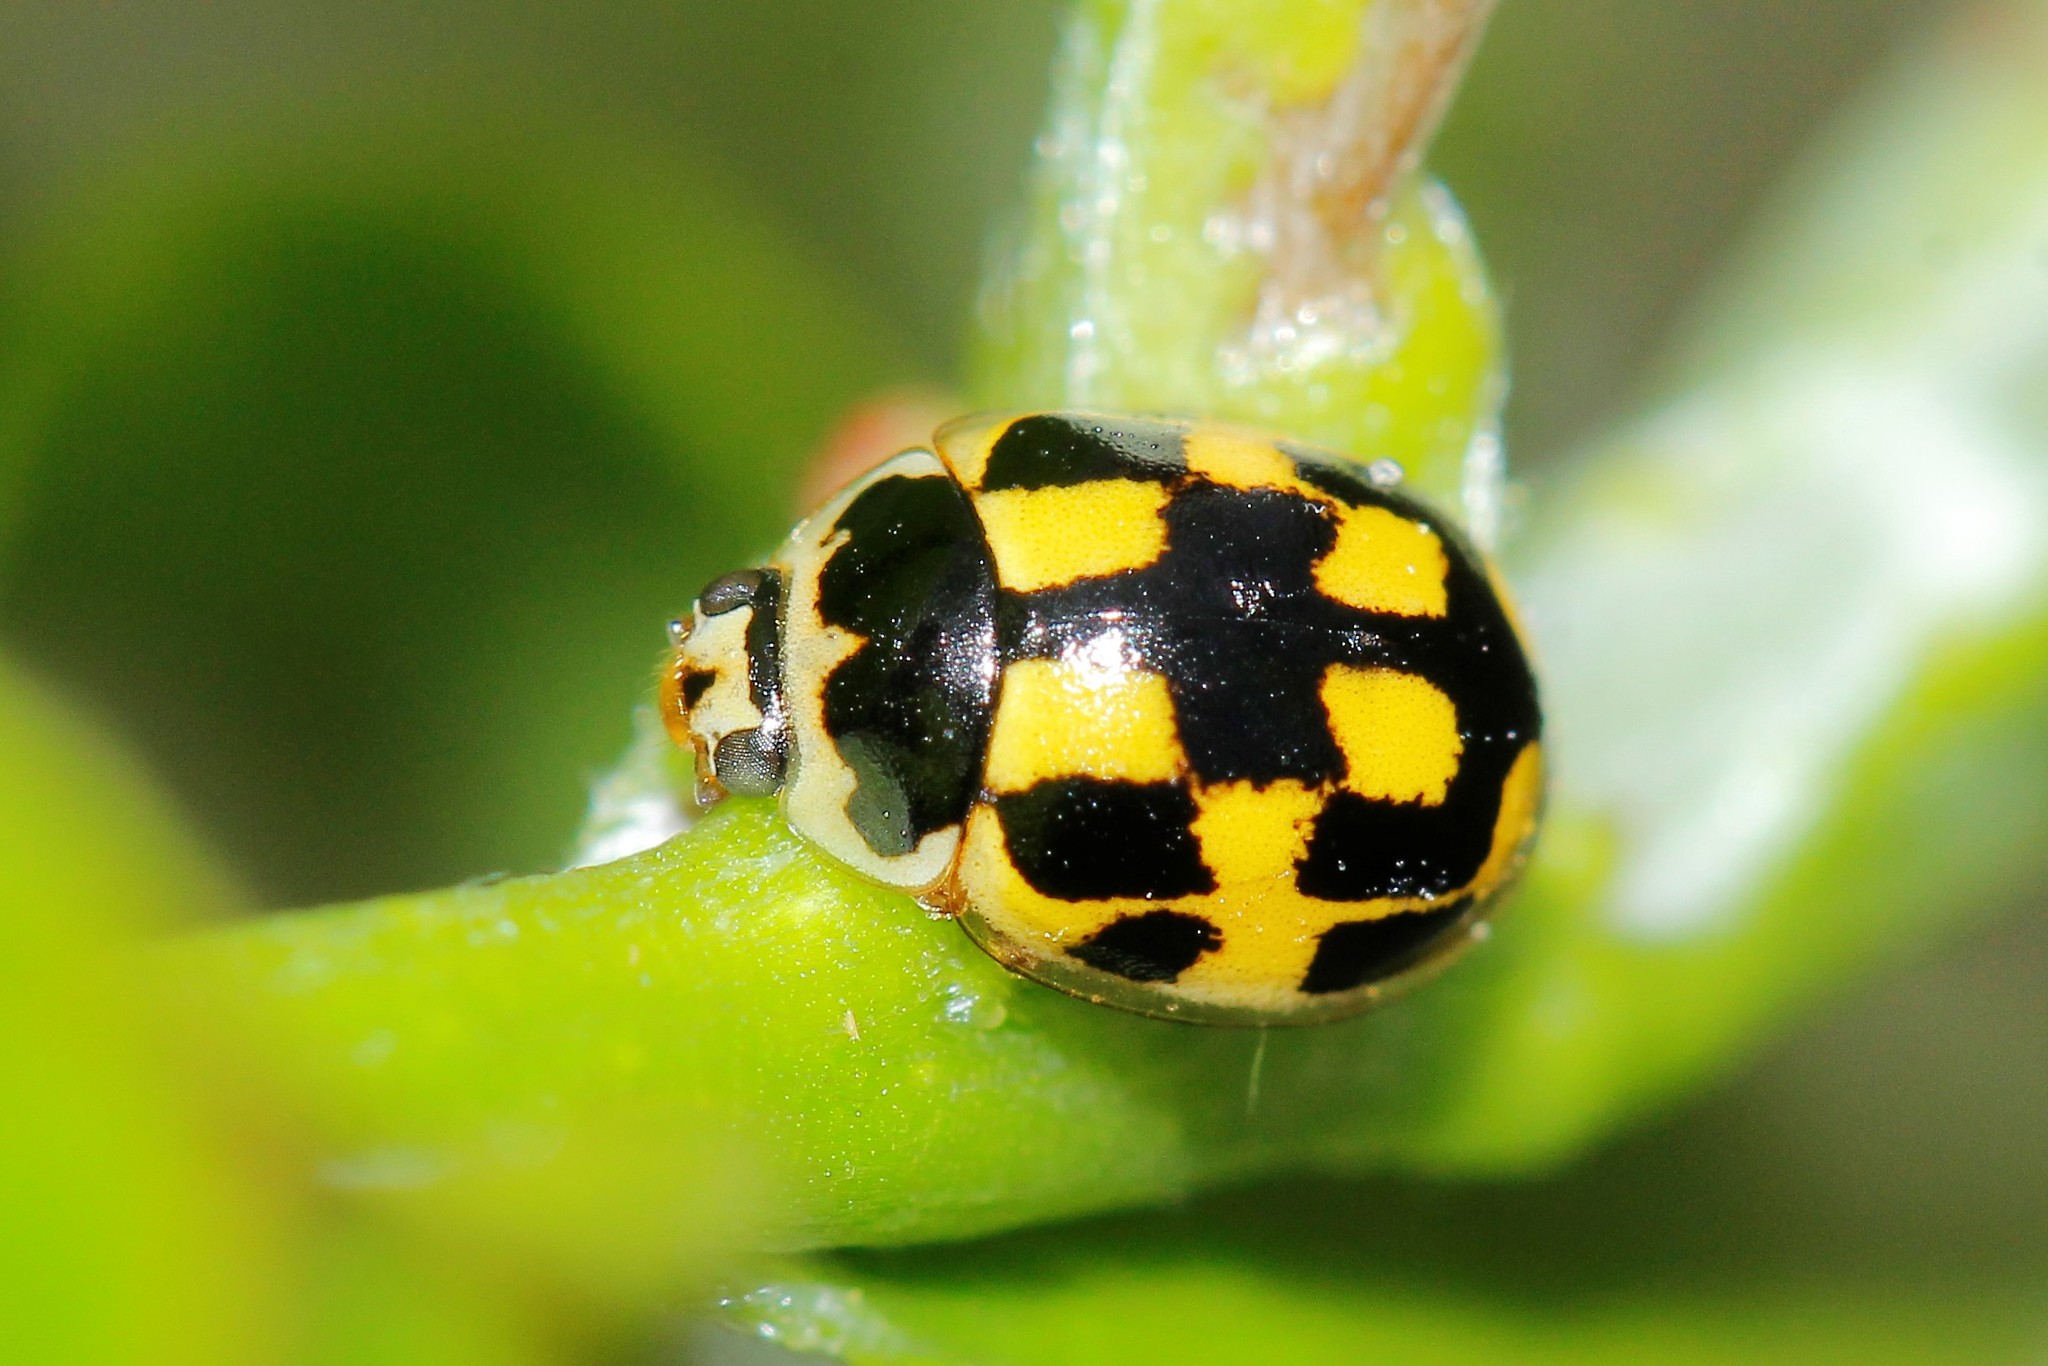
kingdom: Animalia
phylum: Arthropoda
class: Insecta
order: Coleoptera
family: Coccinellidae
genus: Propylaea
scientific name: Propylaea quatuordecimpunctata
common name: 14-spotted ladybird beetle
